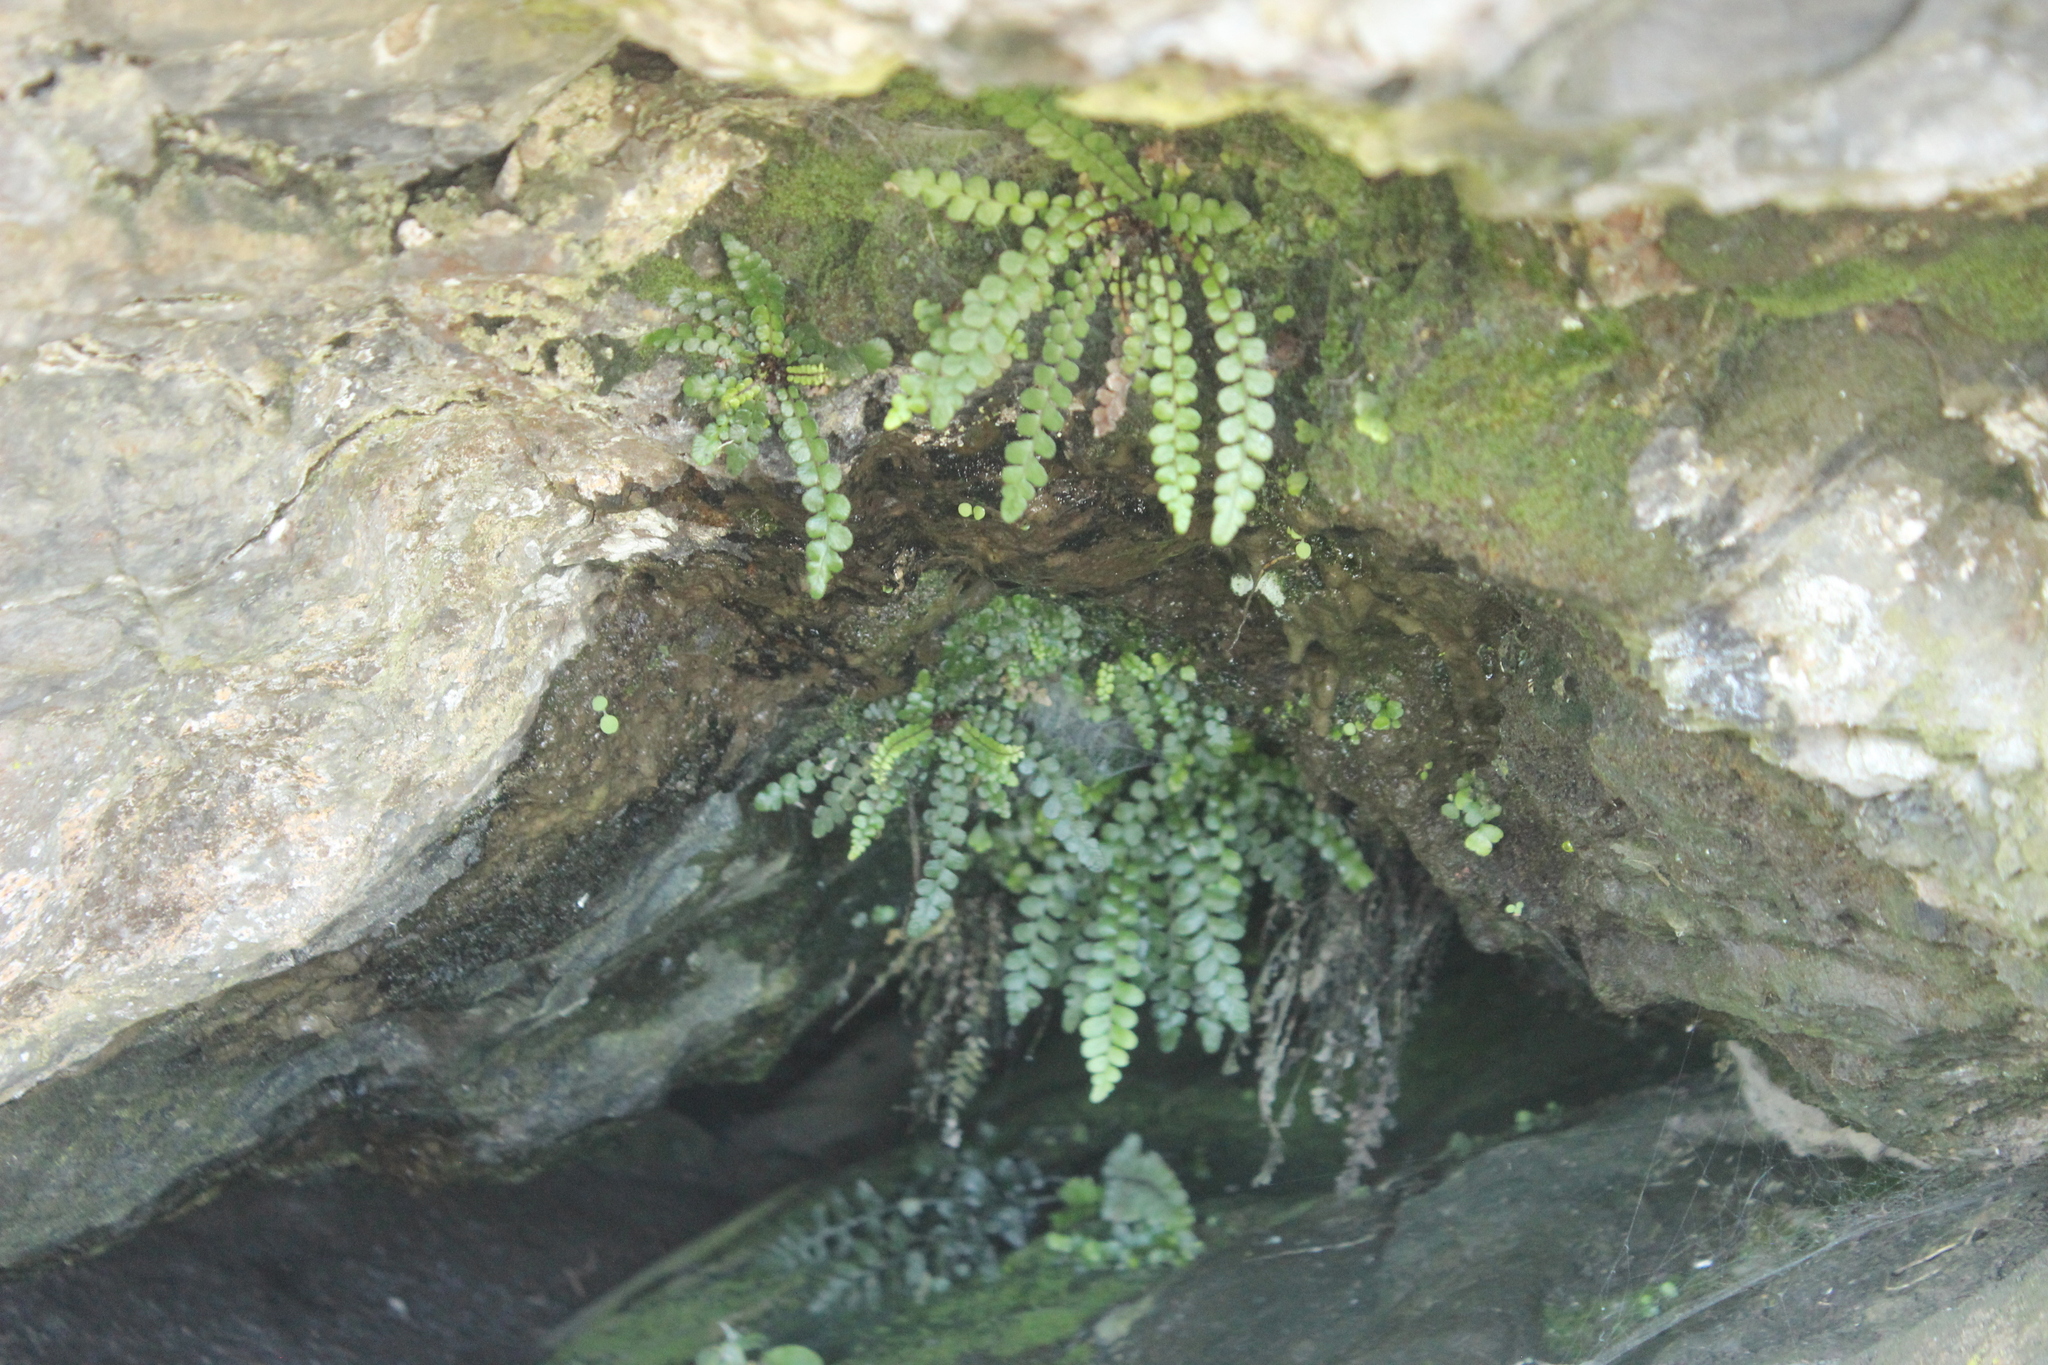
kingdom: Plantae
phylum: Tracheophyta
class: Polypodiopsida
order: Polypodiales
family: Blechnaceae
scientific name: Blechnaceae
